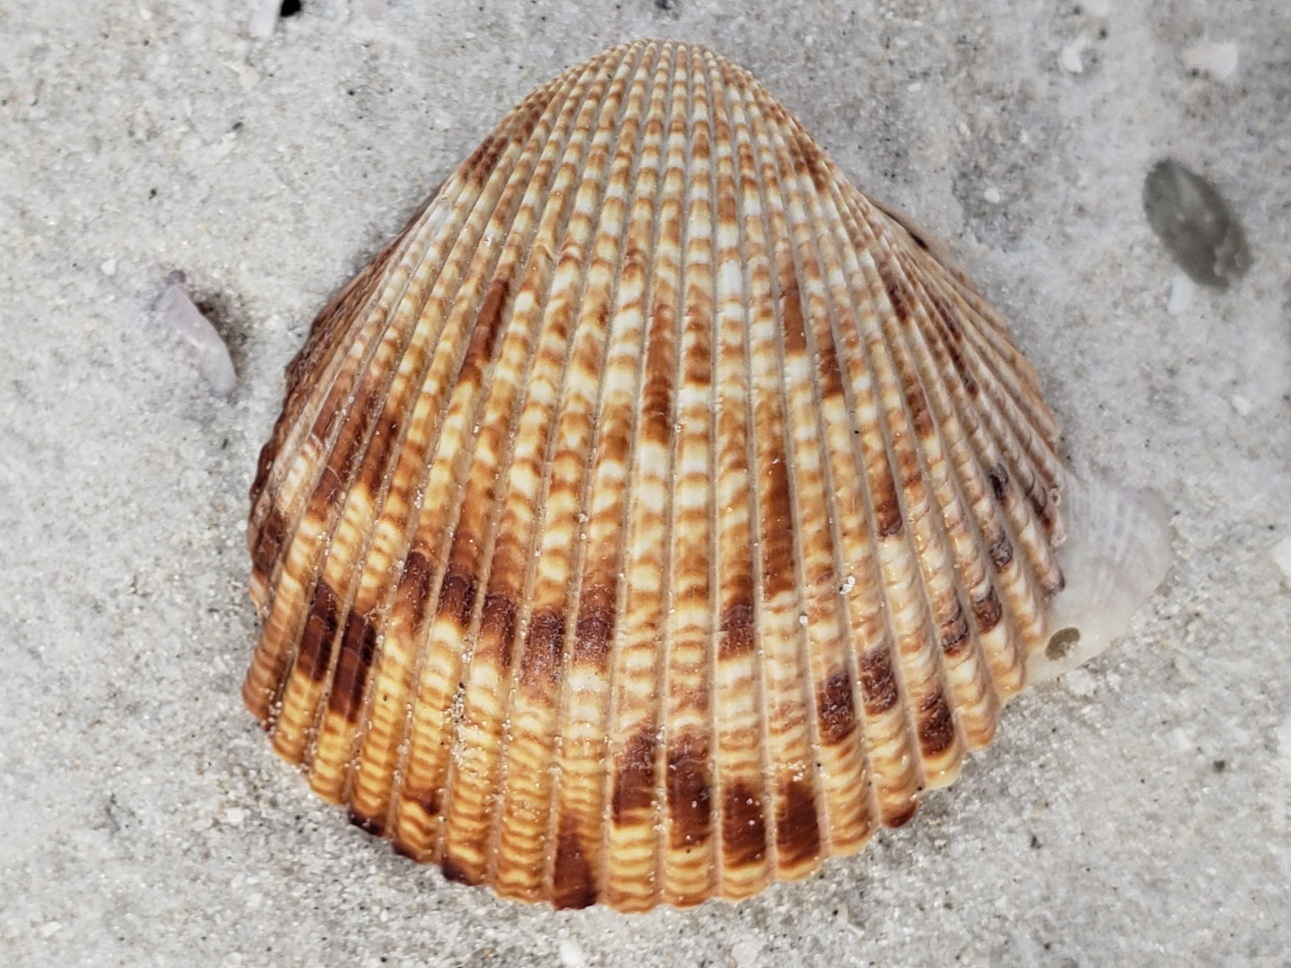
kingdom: Animalia
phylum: Mollusca
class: Bivalvia
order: Cardiida
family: Cardiidae
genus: Dinocardium
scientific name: Dinocardium robustum
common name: Atlantic giant cockle
